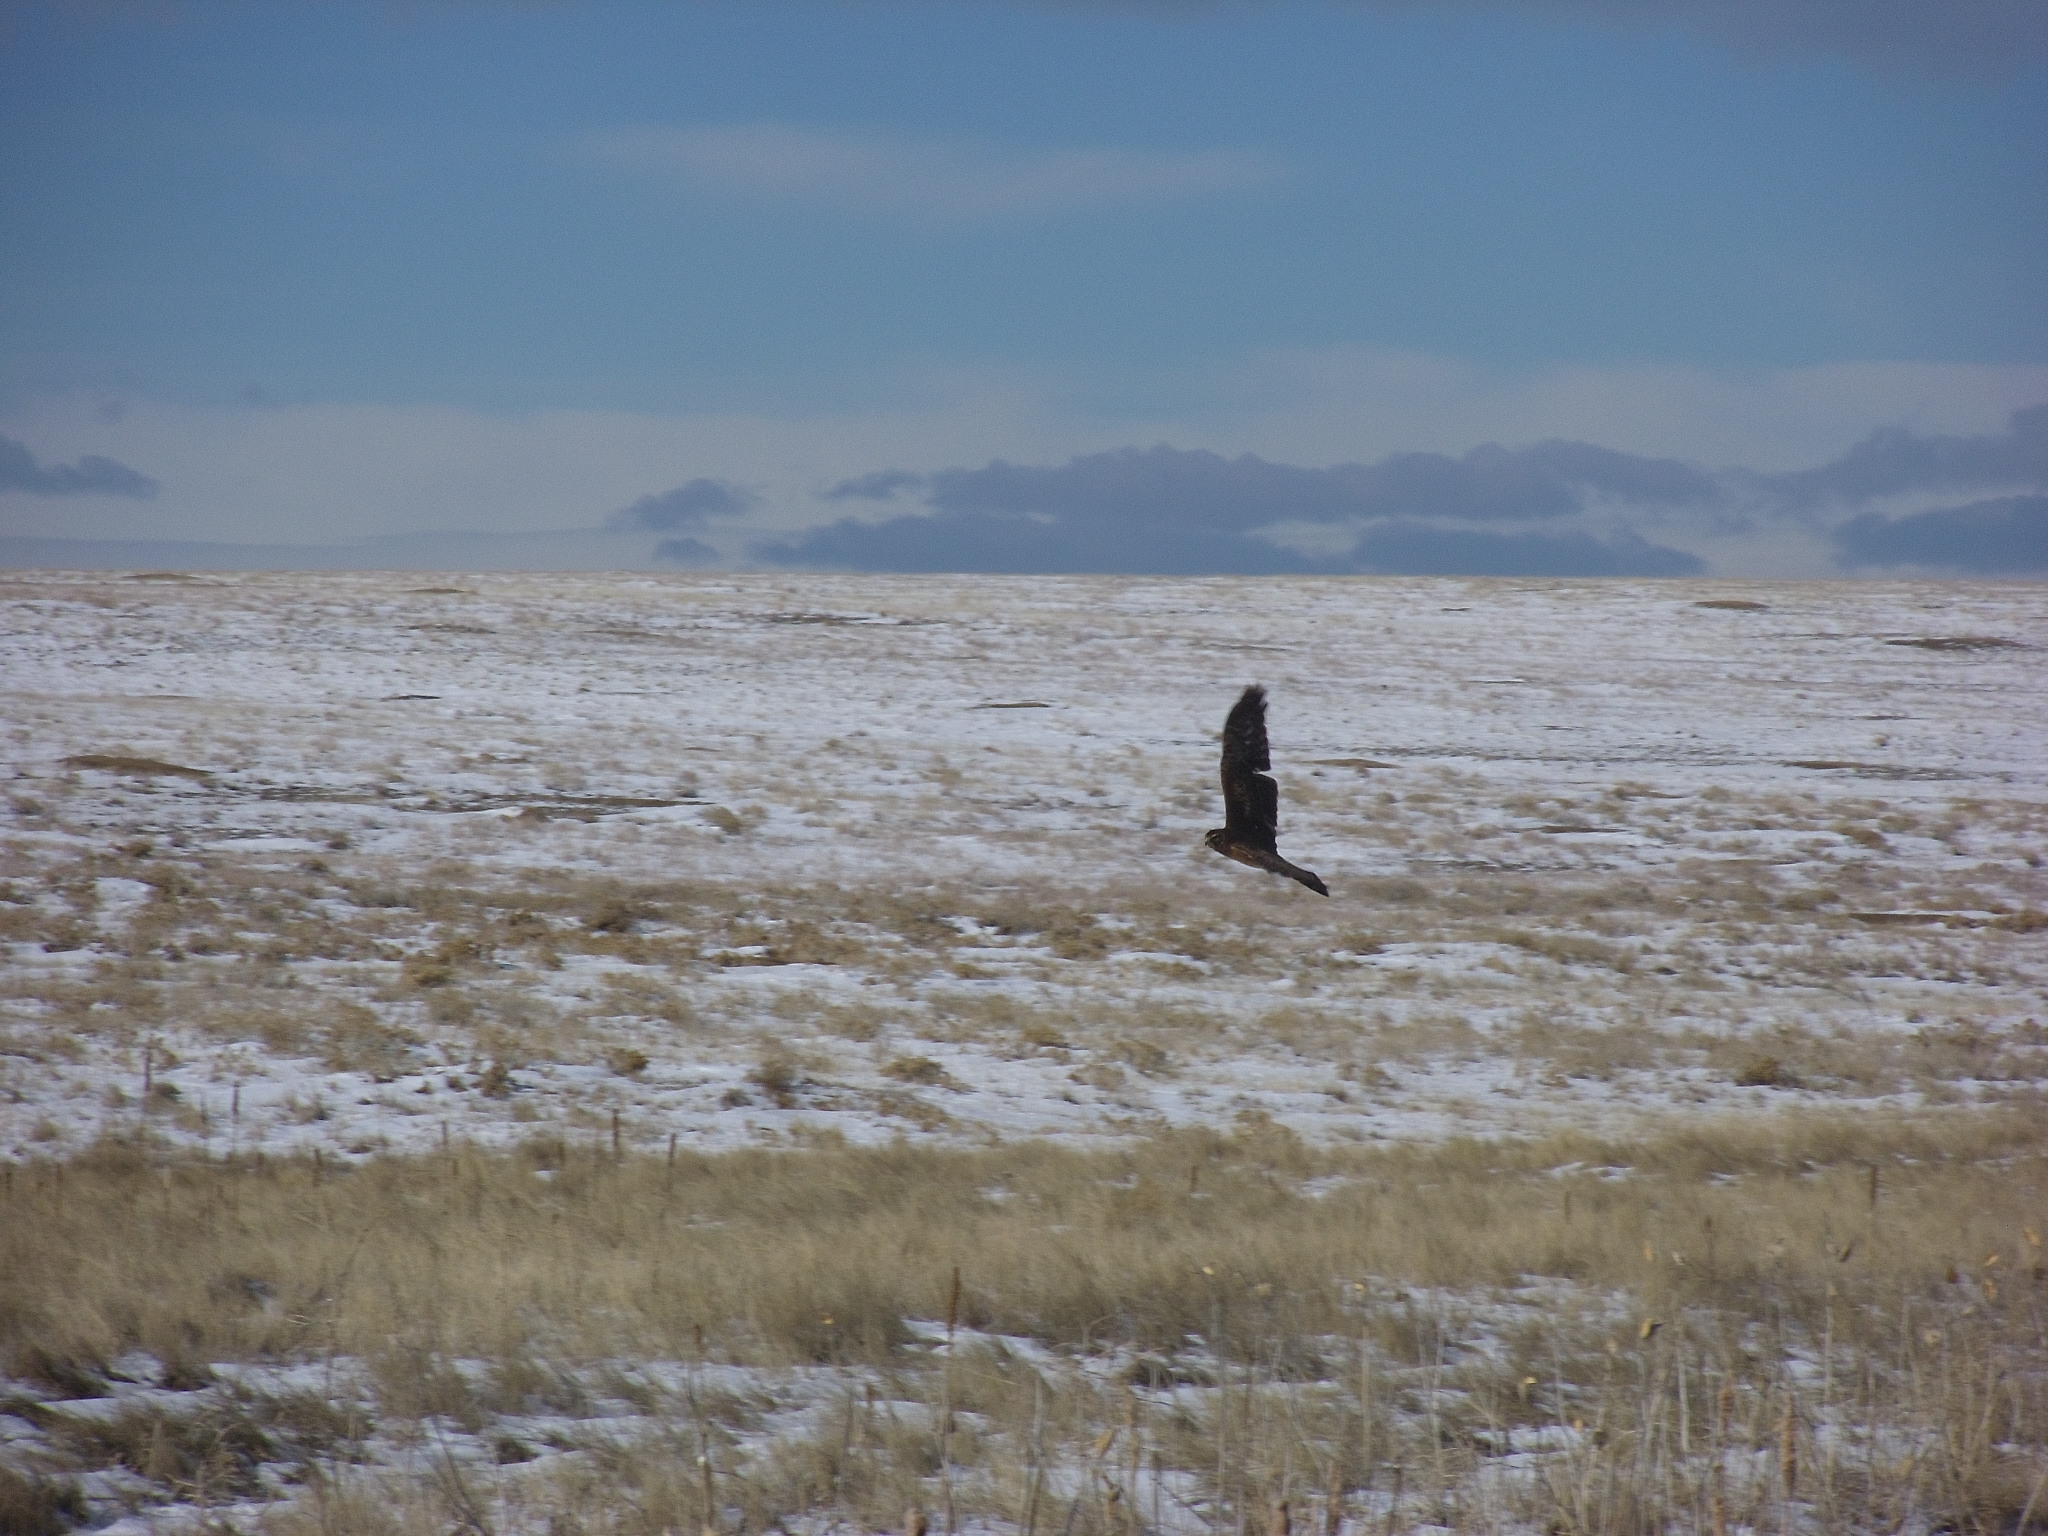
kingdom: Animalia
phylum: Chordata
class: Aves
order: Accipitriformes
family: Accipitridae
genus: Circus
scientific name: Circus cyaneus
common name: Hen harrier
